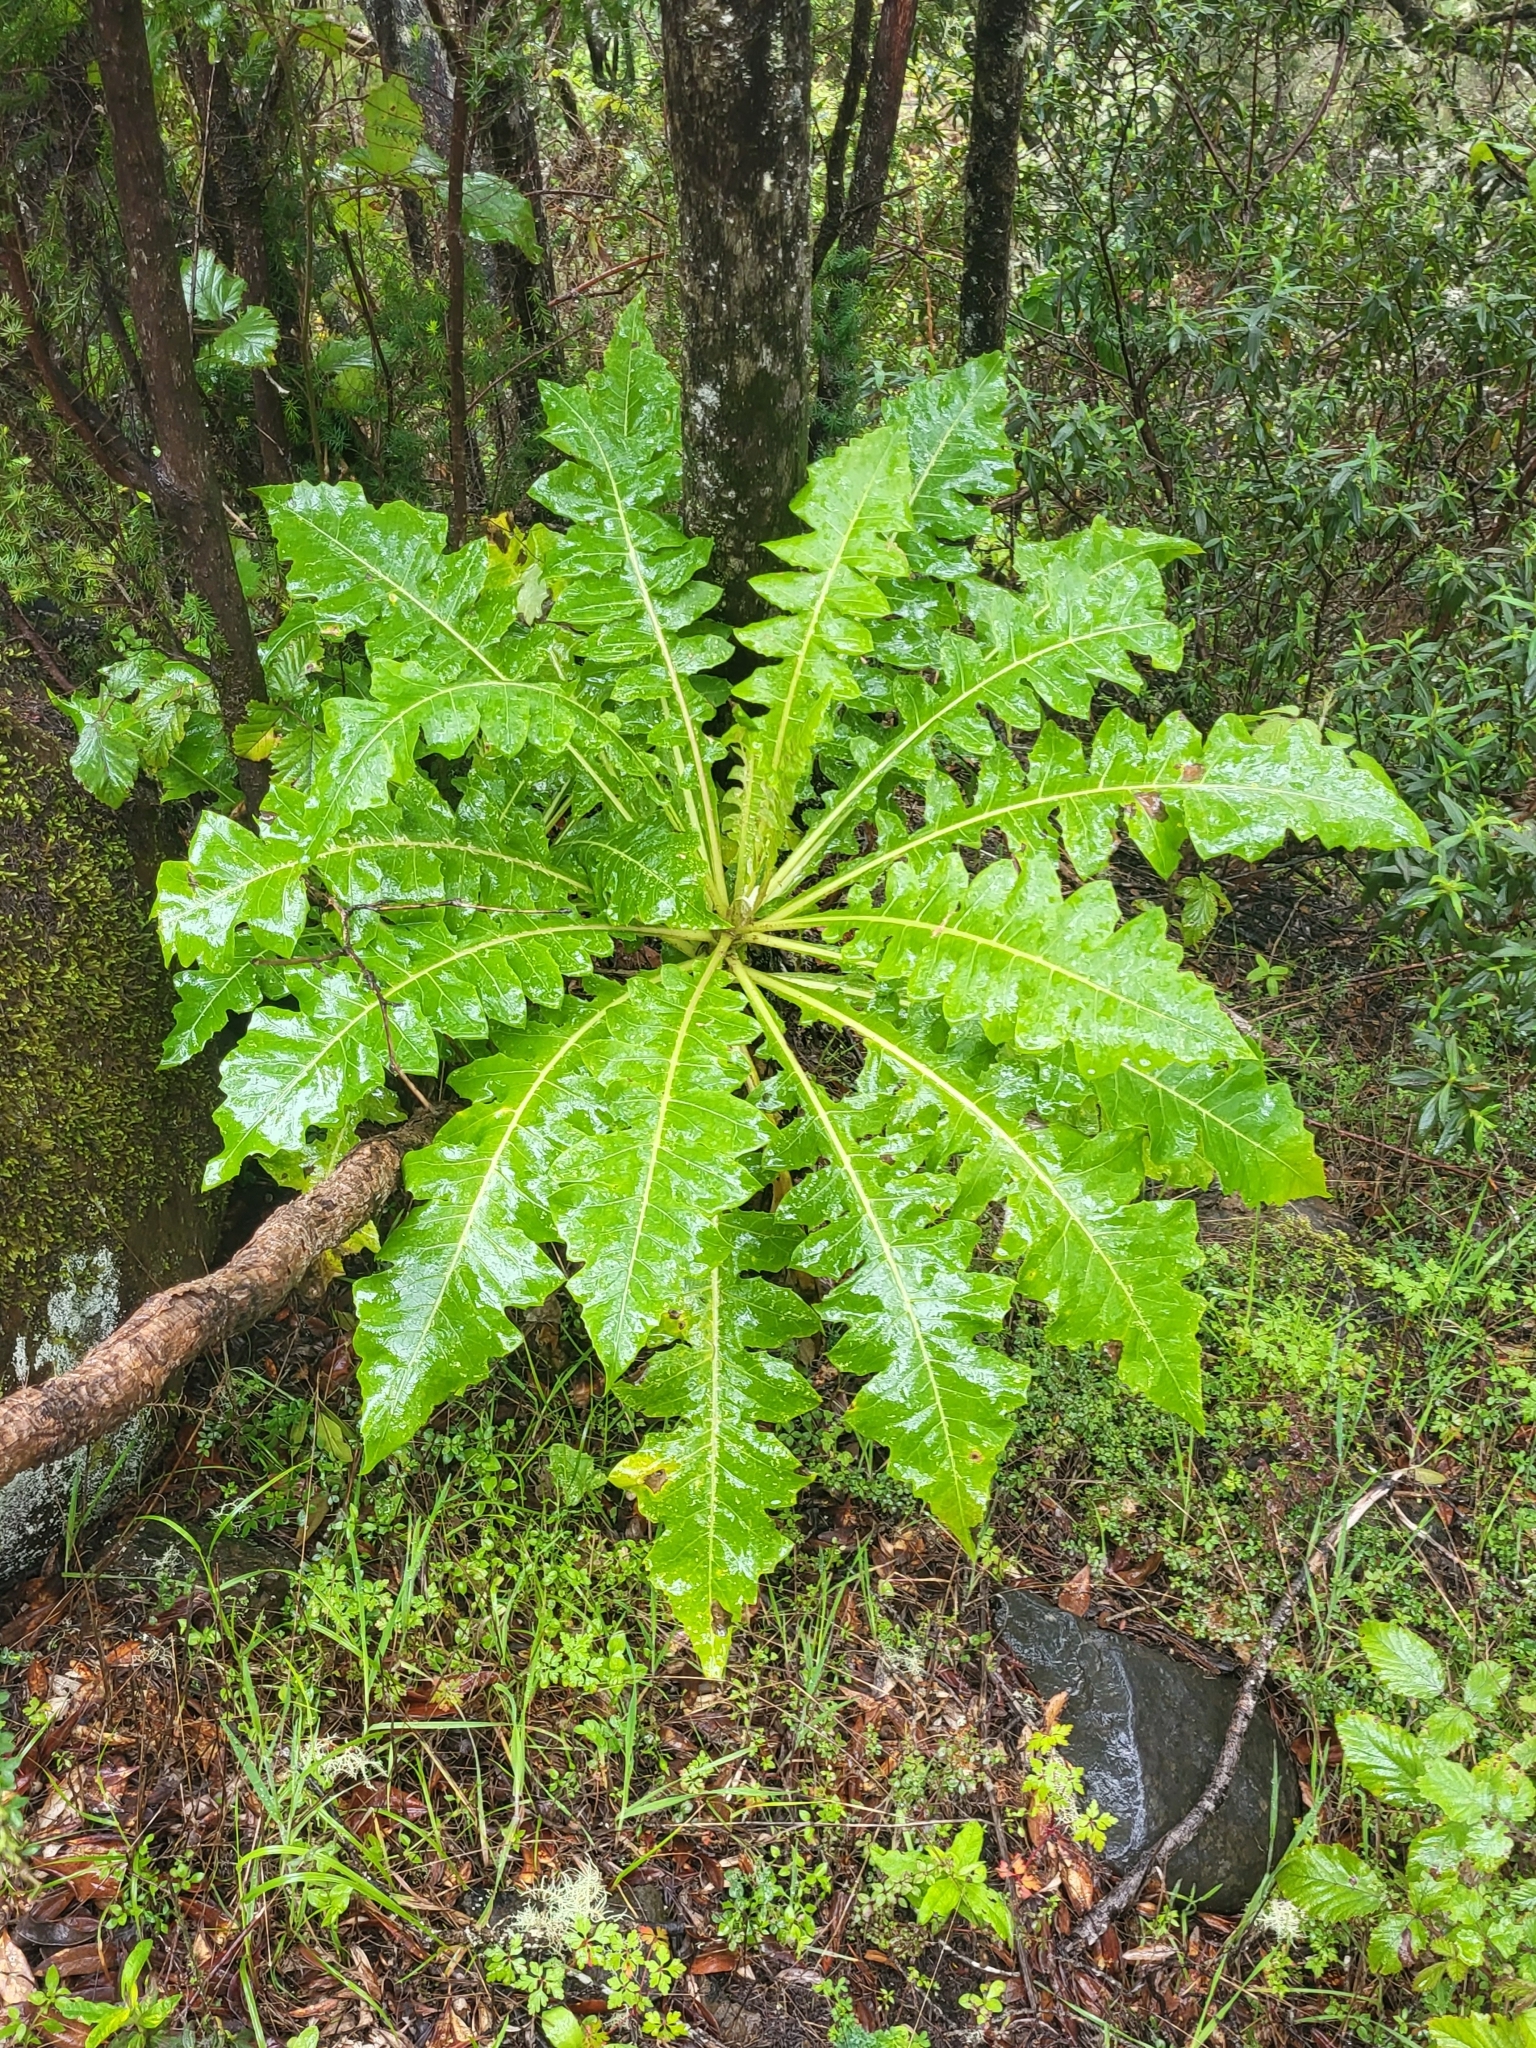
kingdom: Plantae
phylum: Tracheophyta
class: Magnoliopsida
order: Asterales
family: Asteraceae
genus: Sonchus
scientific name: Sonchus hierrensis
